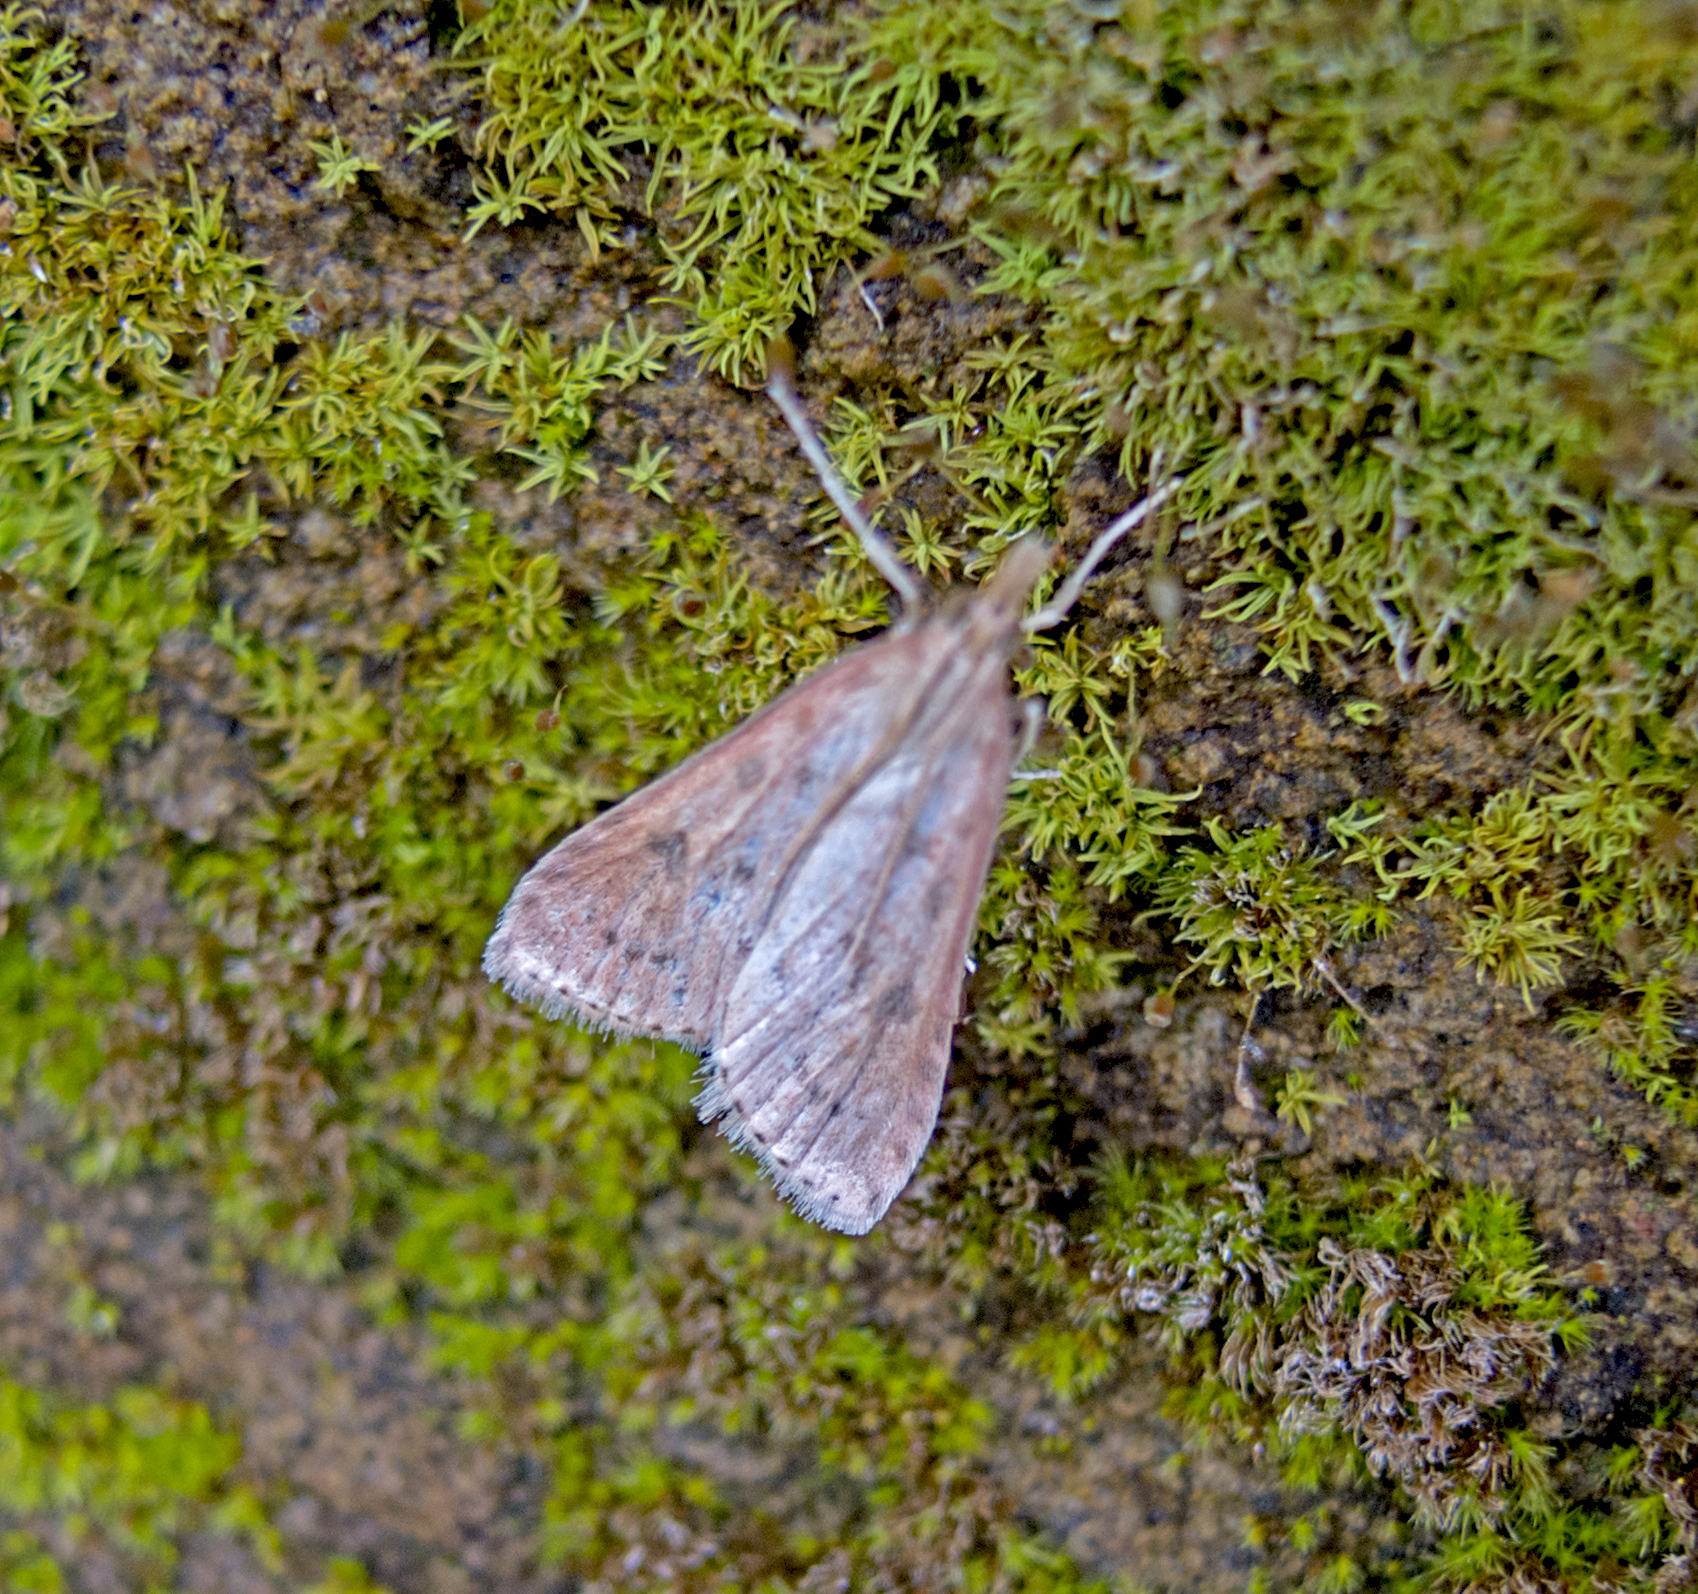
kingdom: Animalia
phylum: Arthropoda
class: Insecta
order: Lepidoptera
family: Crambidae
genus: Udea
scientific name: Udea ferrugalis
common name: Rusty dot
